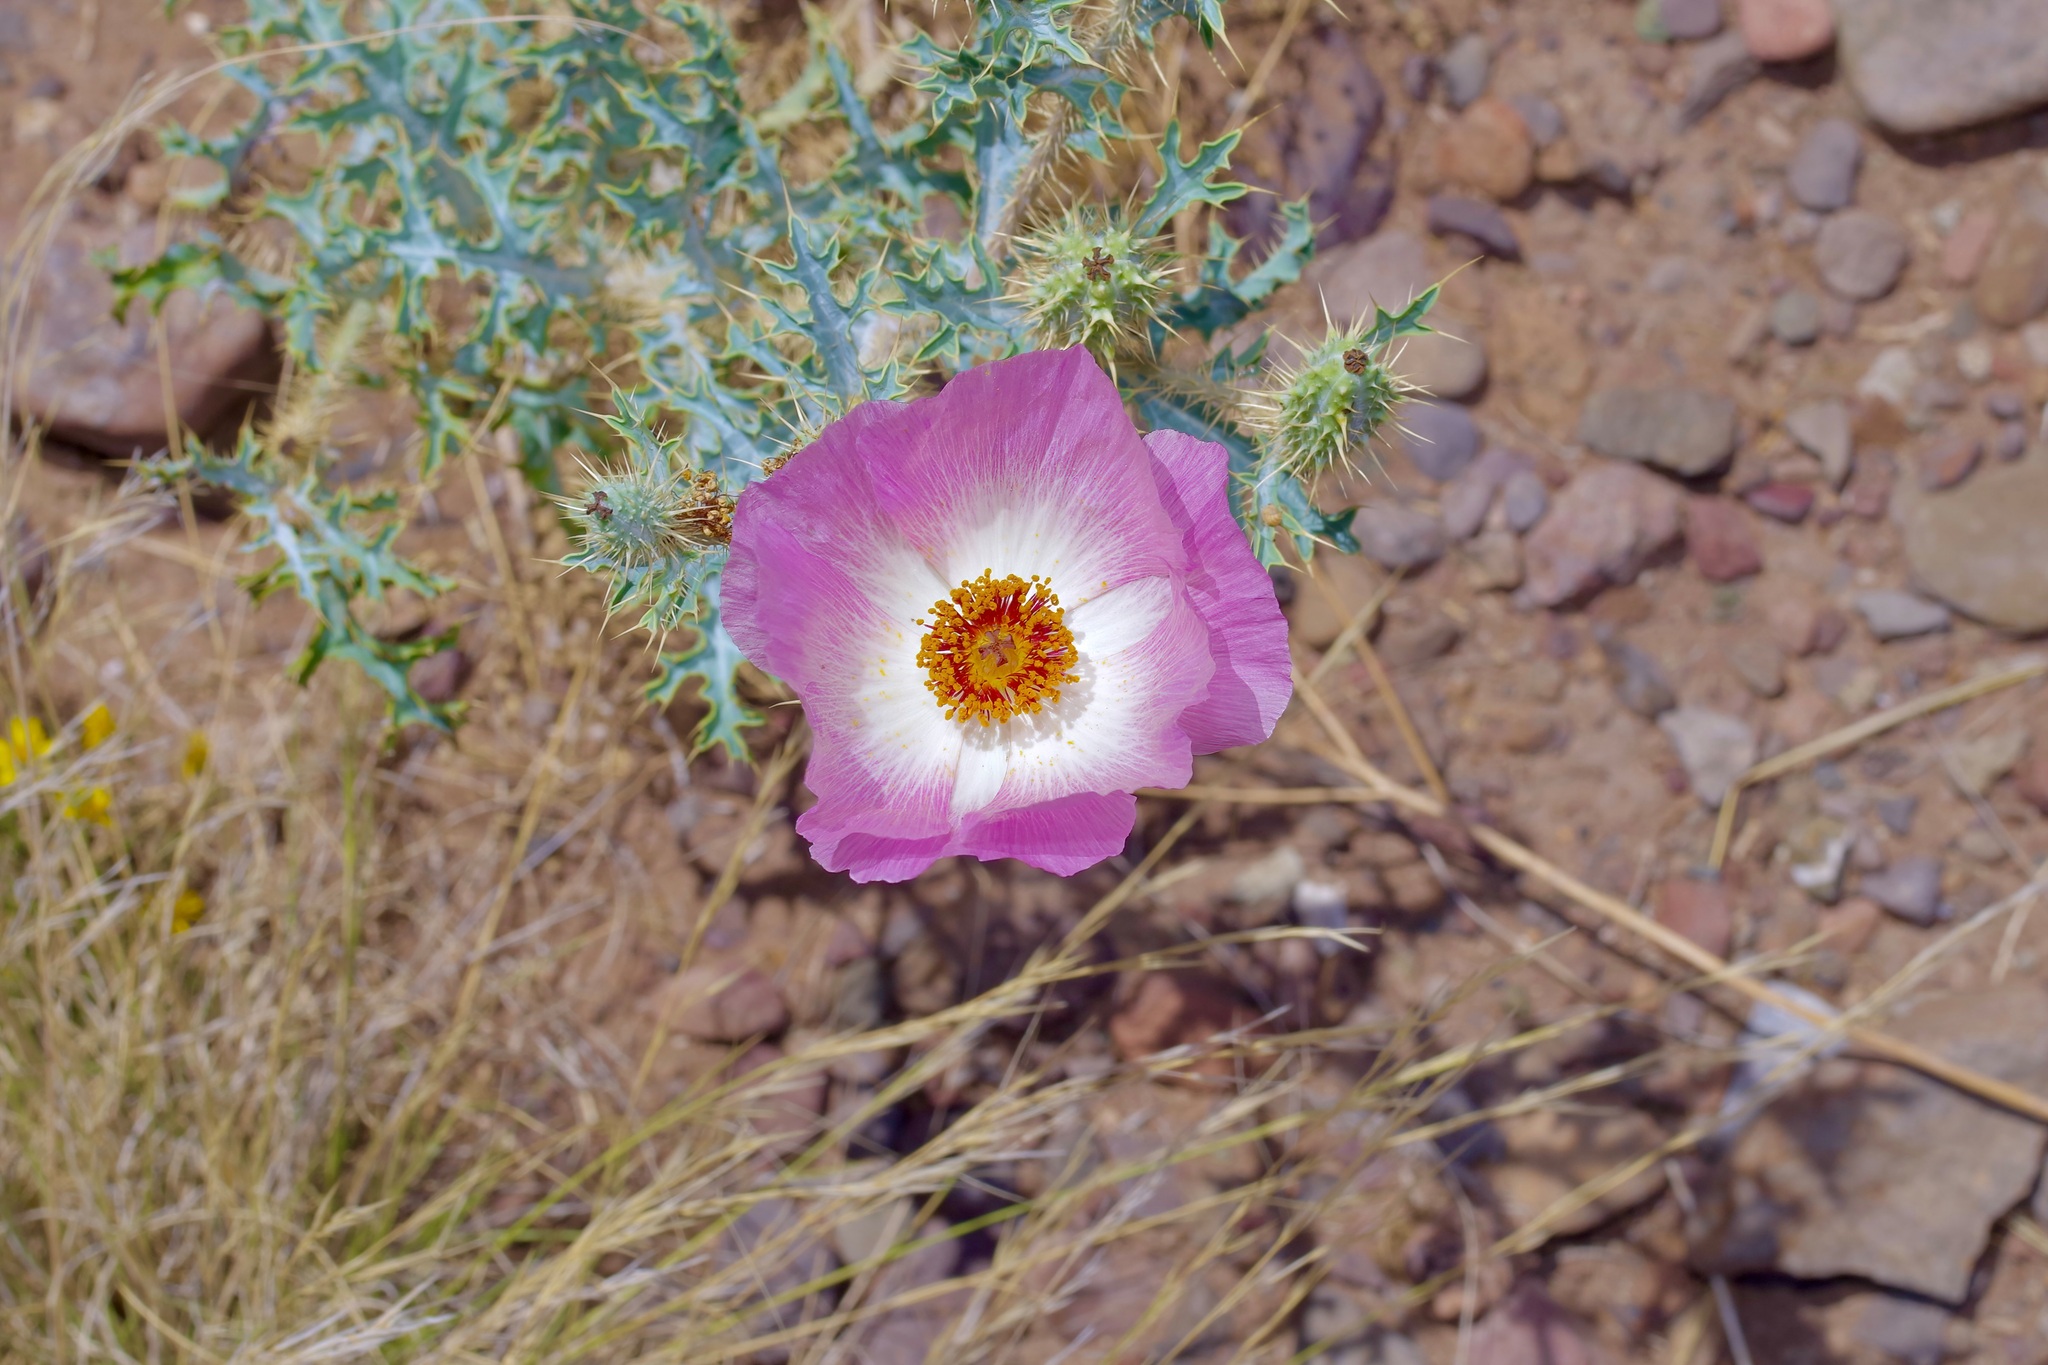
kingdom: Plantae
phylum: Tracheophyta
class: Magnoliopsida
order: Ranunculales
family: Papaveraceae
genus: Argemone
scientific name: Argemone sanguinea
